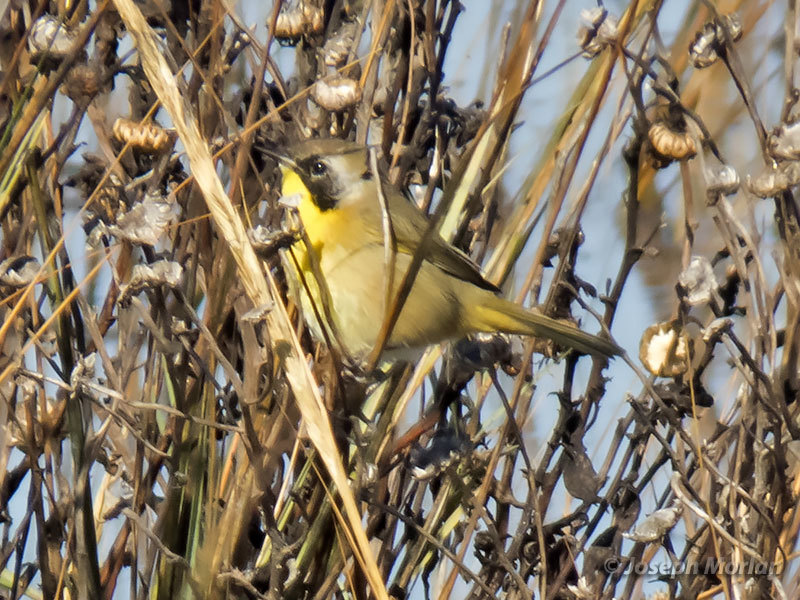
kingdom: Animalia
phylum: Chordata
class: Aves
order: Passeriformes
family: Parulidae
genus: Geothlypis
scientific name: Geothlypis trichas
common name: Common yellowthroat
